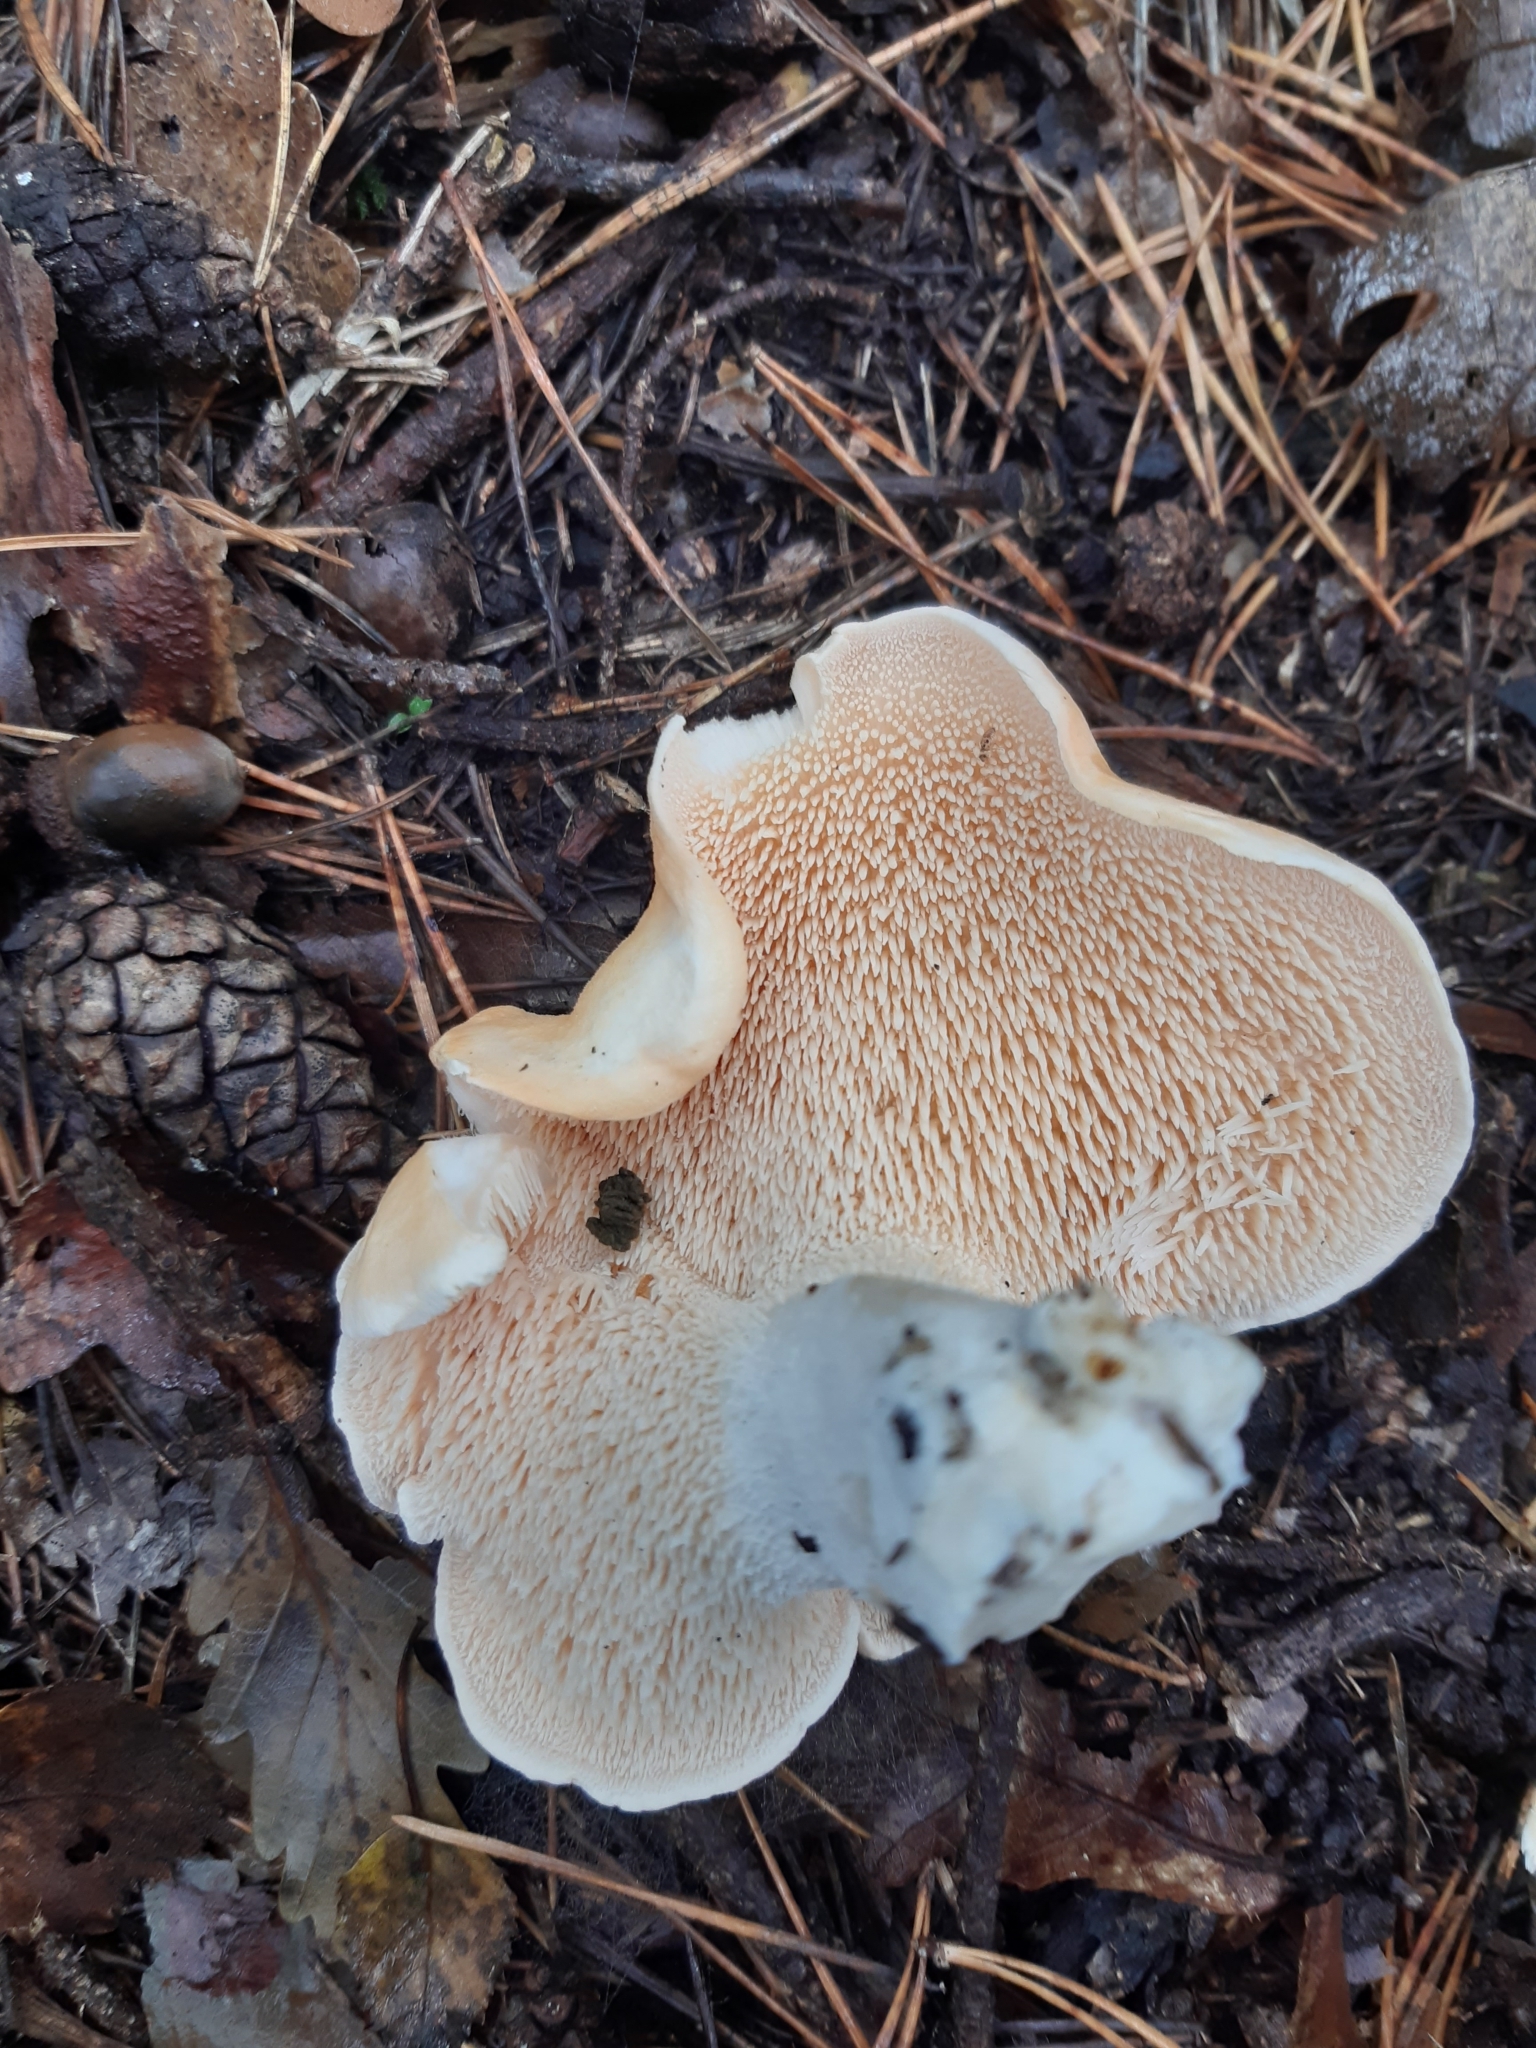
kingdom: Fungi
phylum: Basidiomycota
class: Agaricomycetes
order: Cantharellales
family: Hydnaceae
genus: Hydnum
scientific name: Hydnum repandum
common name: Wood hedgehog
